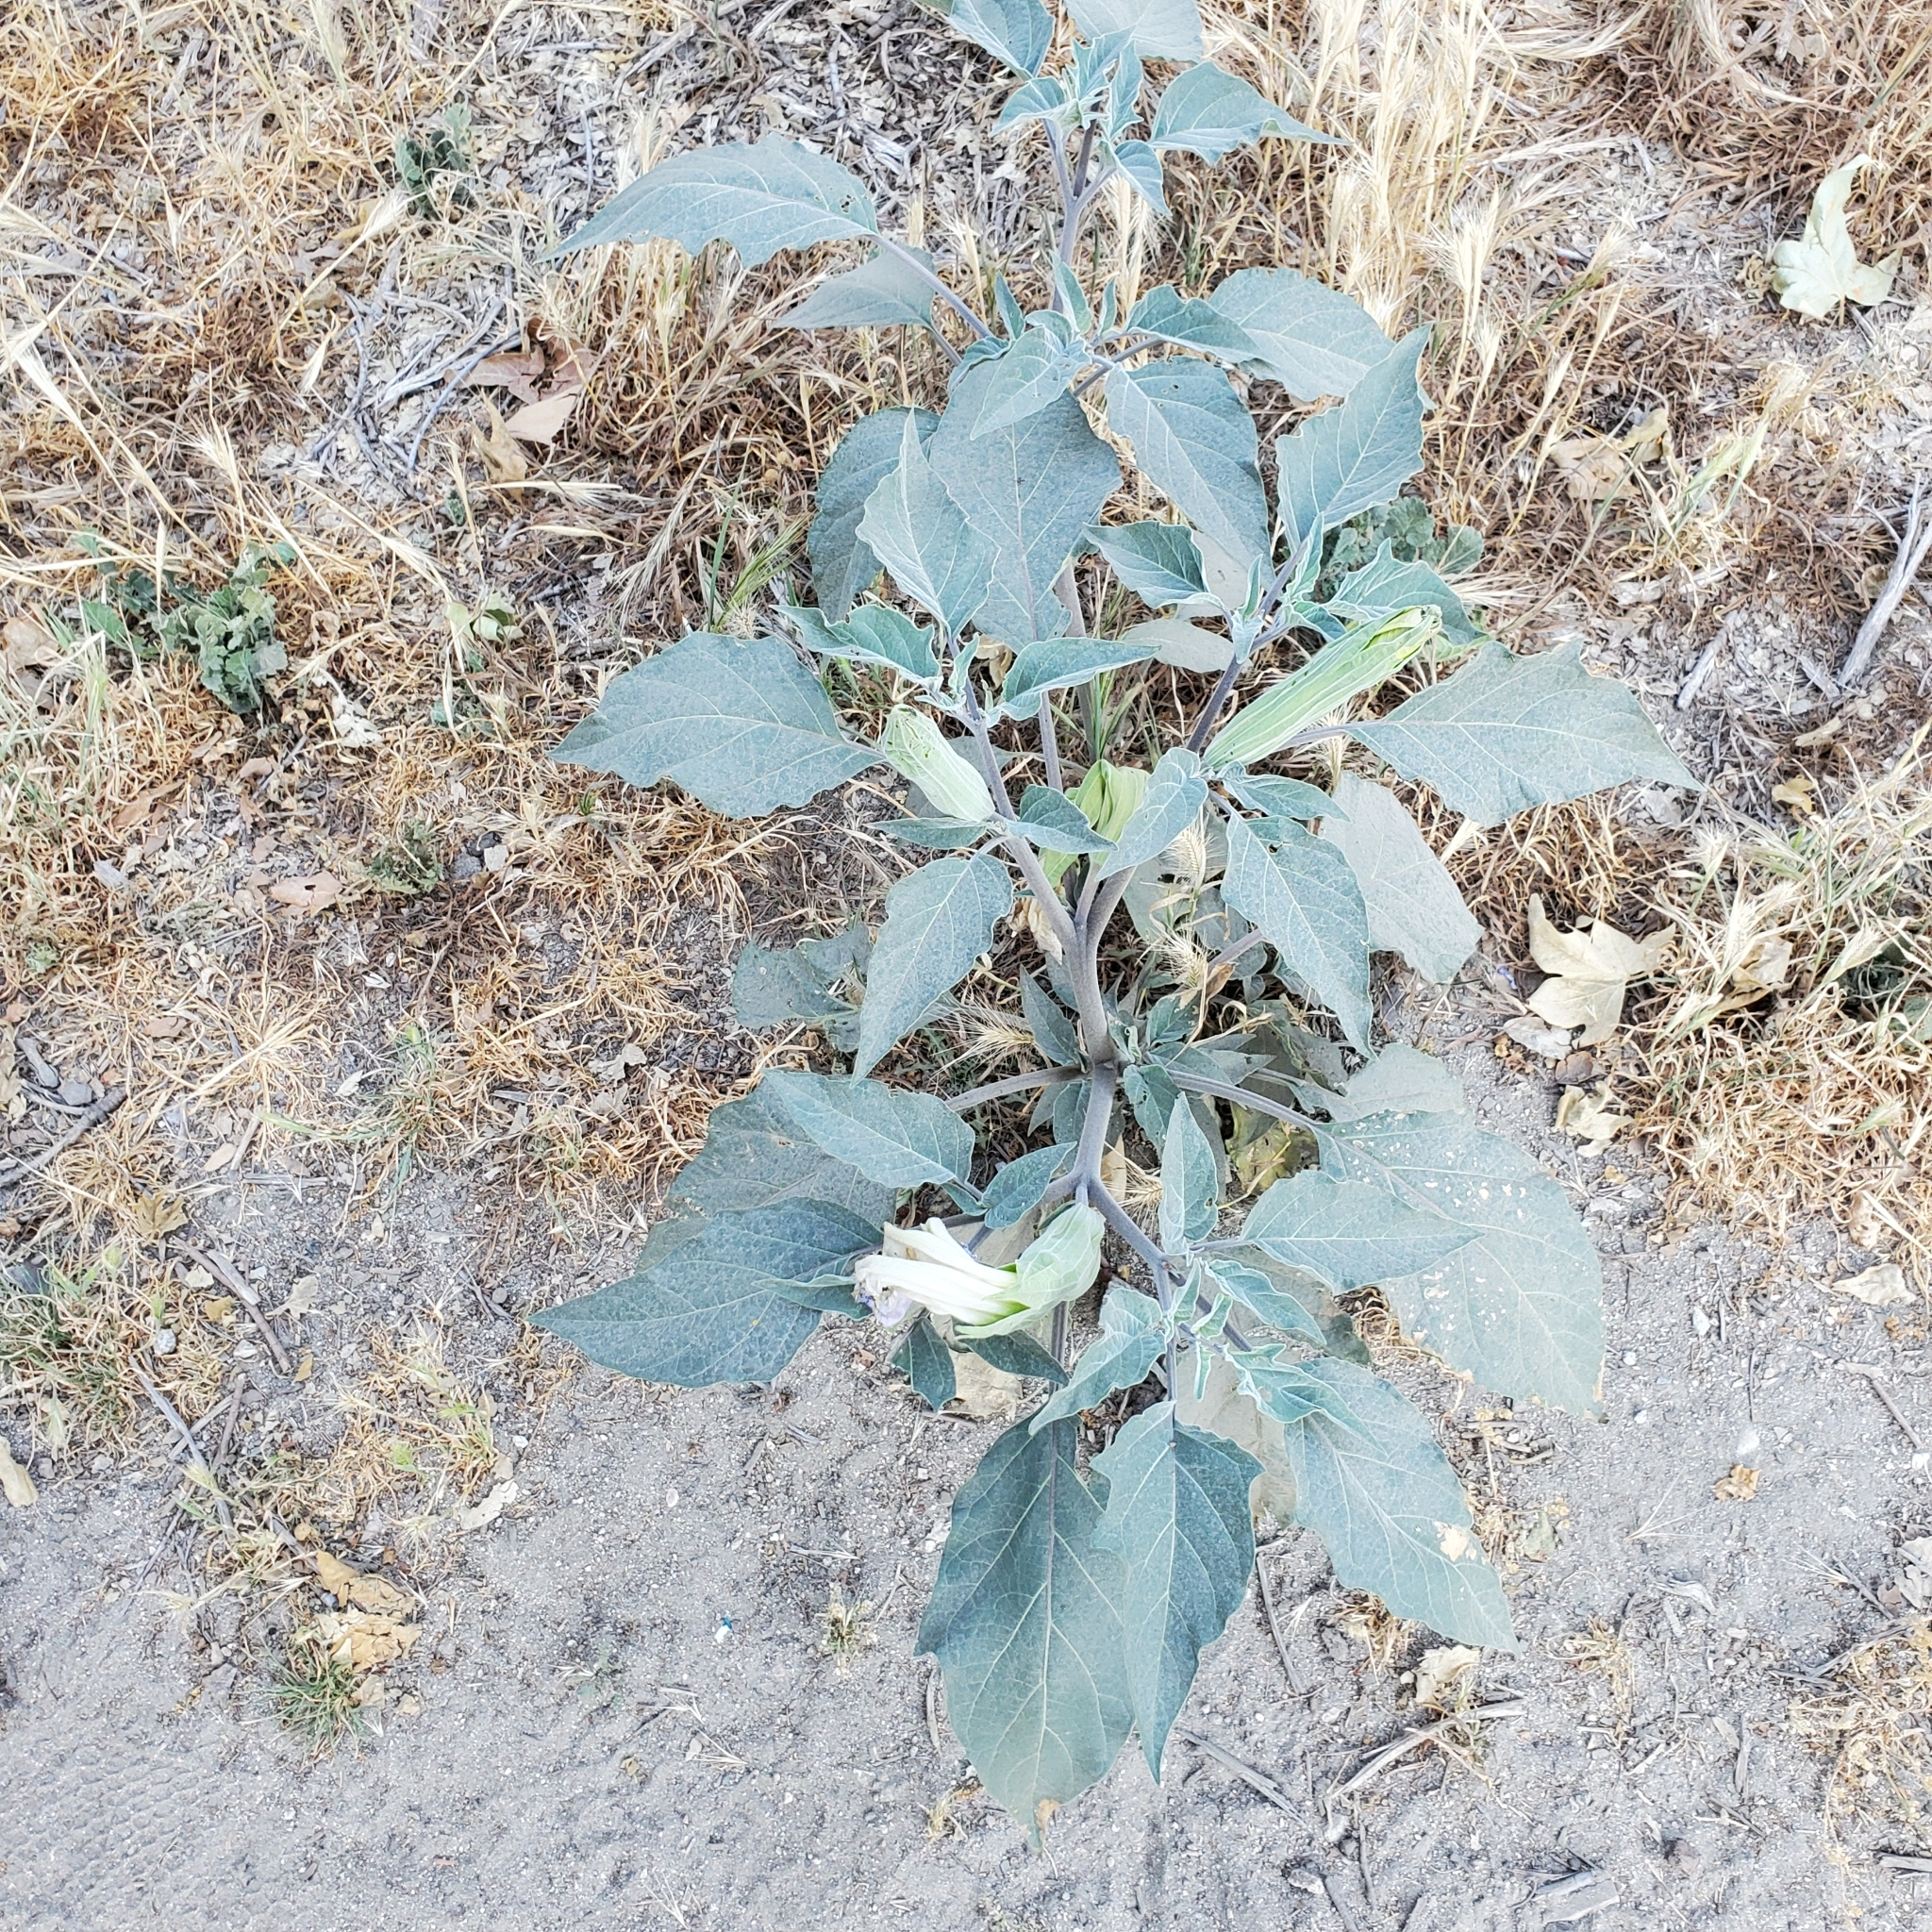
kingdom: Plantae
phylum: Tracheophyta
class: Magnoliopsida
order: Solanales
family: Solanaceae
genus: Datura
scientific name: Datura wrightii
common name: Sacred thorn-apple
